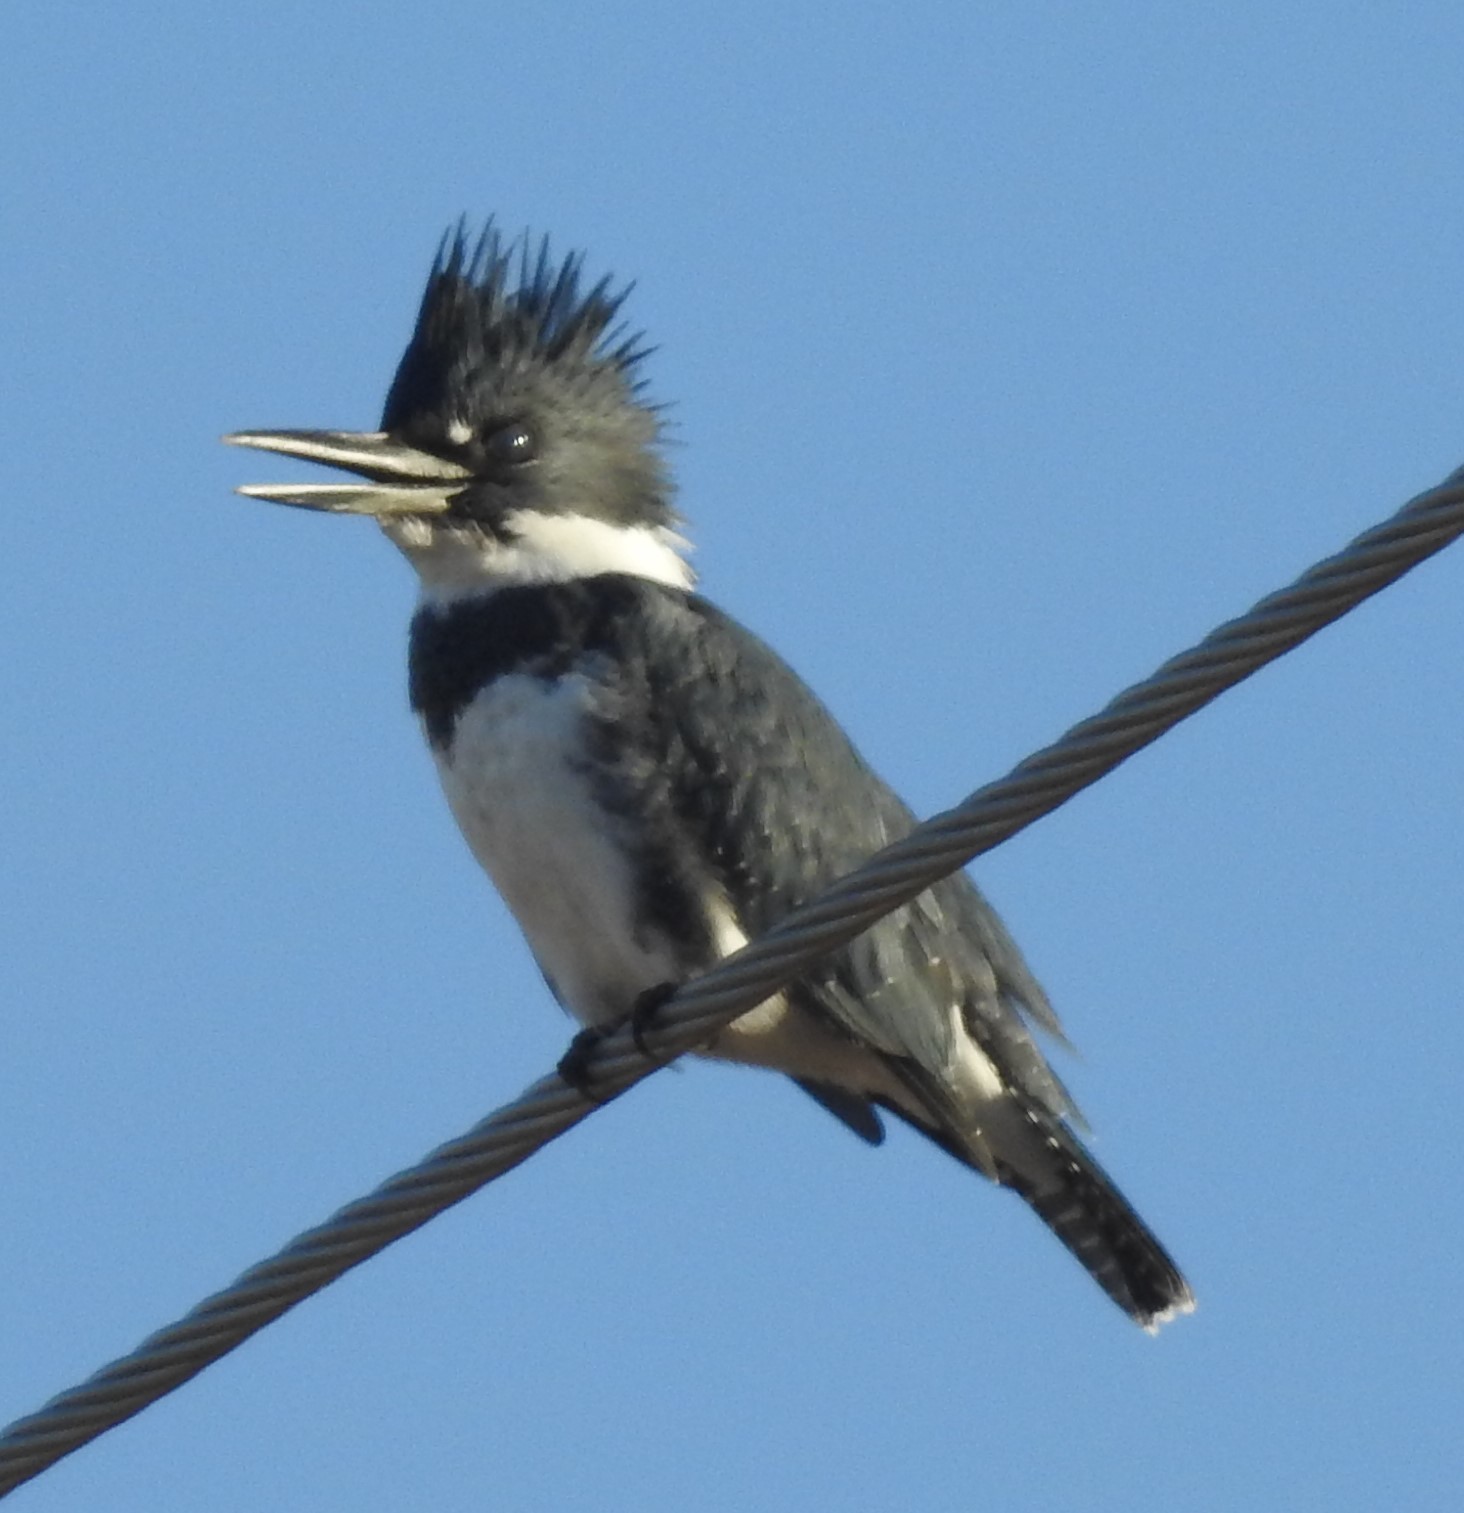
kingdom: Animalia
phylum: Chordata
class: Aves
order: Coraciiformes
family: Alcedinidae
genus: Megaceryle
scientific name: Megaceryle alcyon
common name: Belted kingfisher
